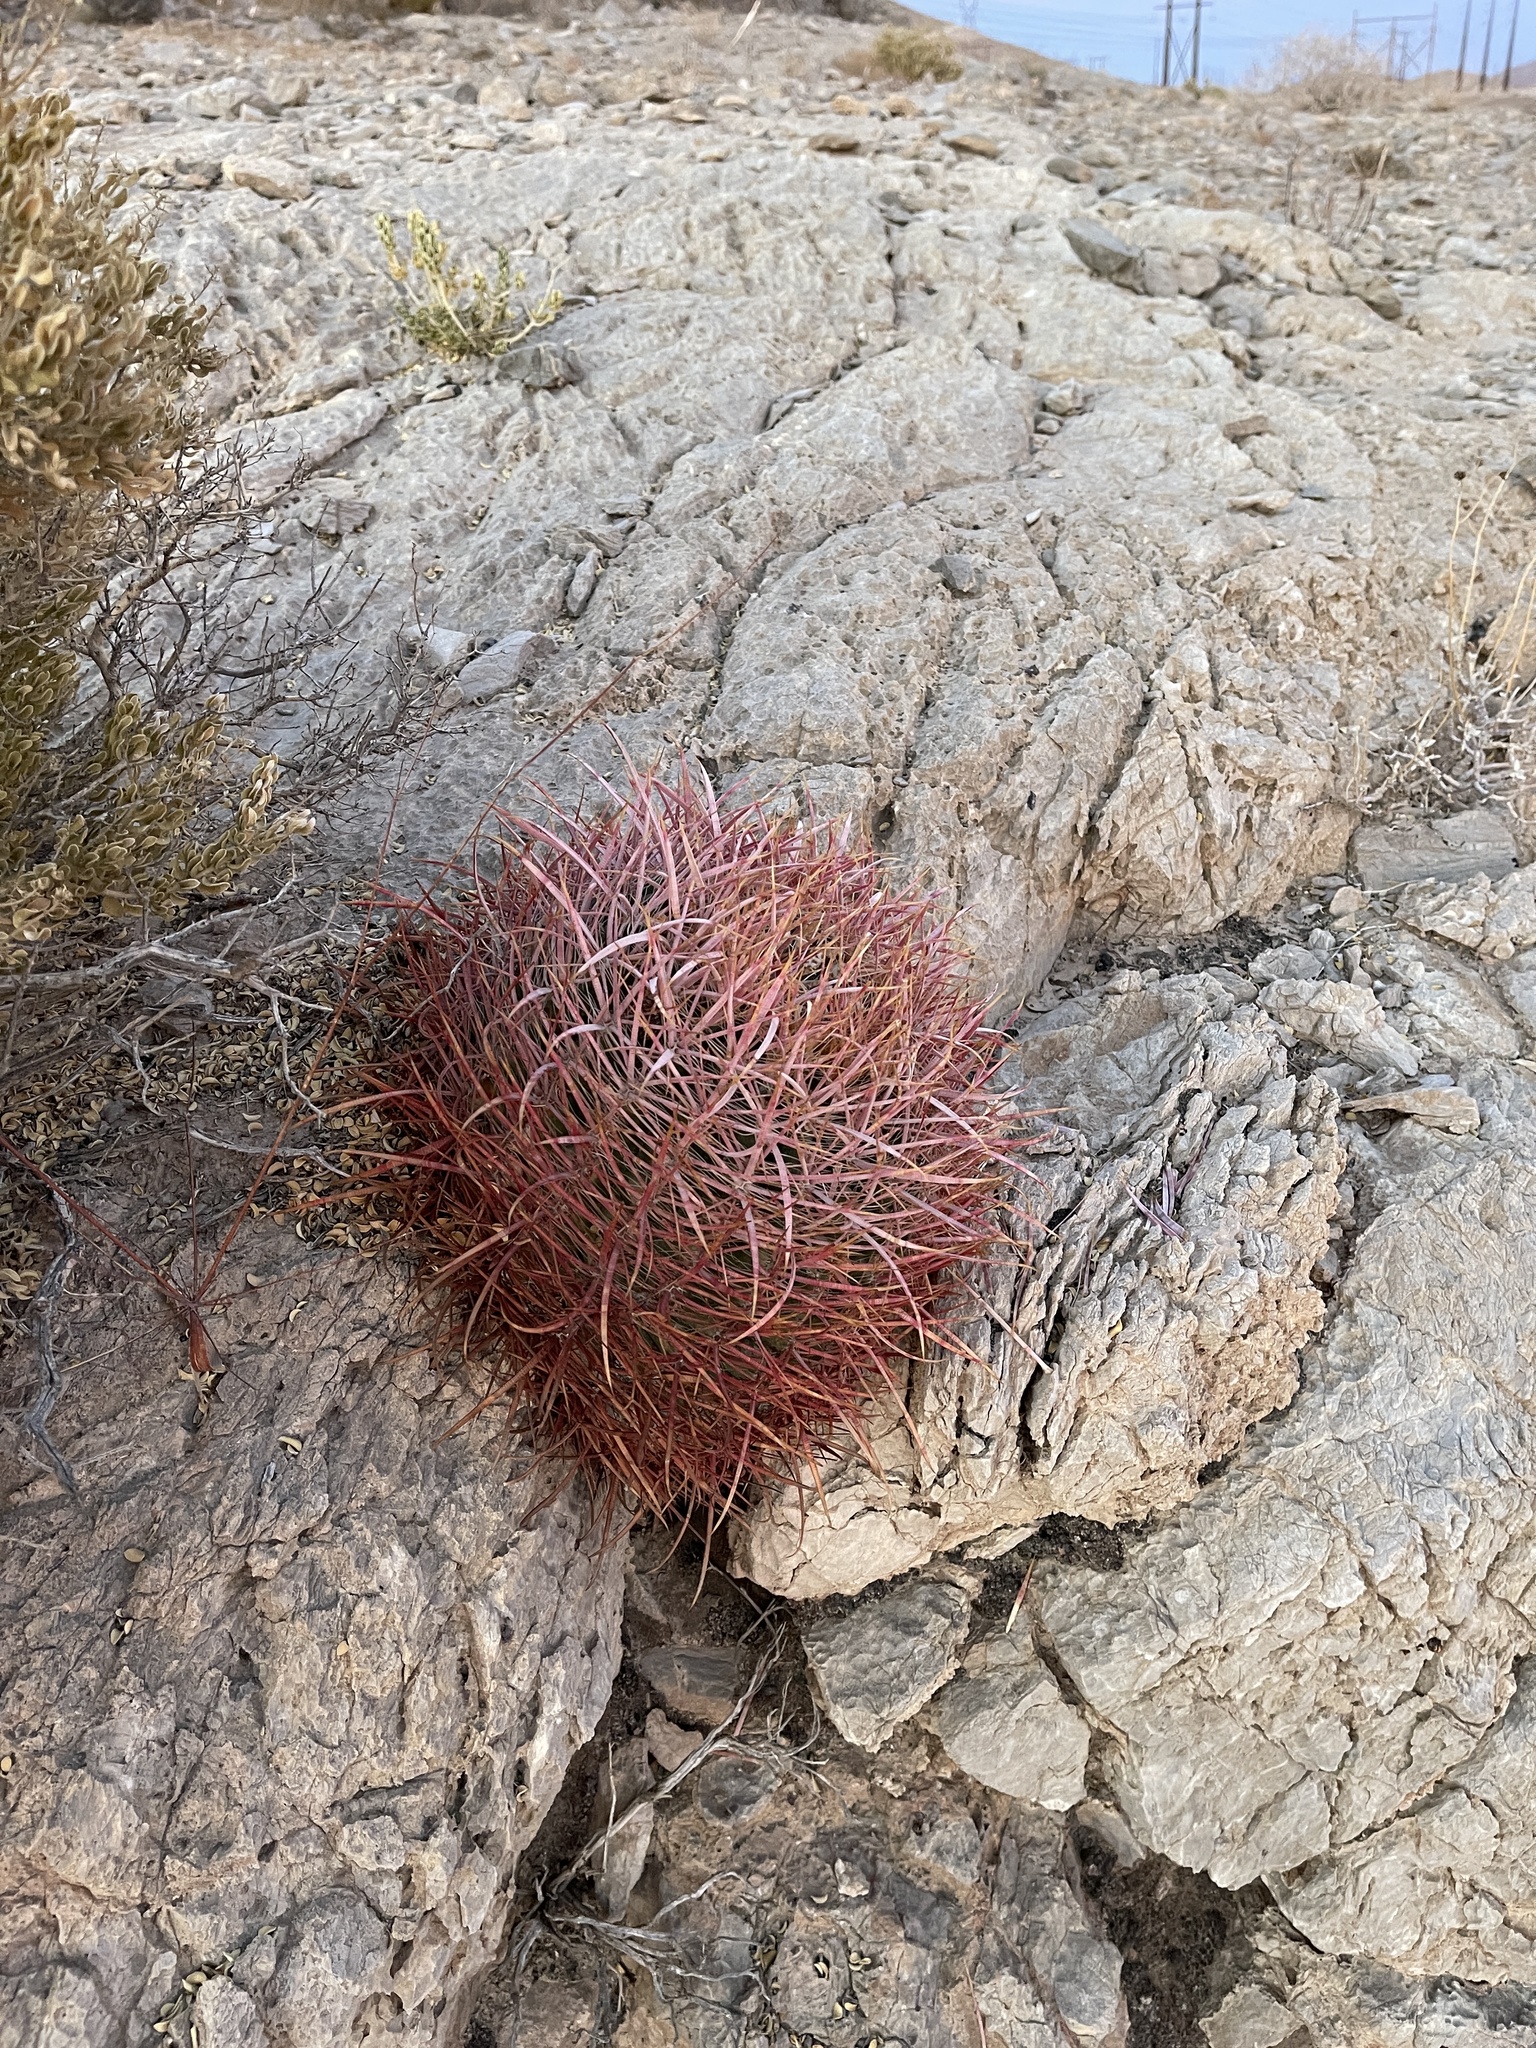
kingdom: Plantae
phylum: Tracheophyta
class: Magnoliopsida
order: Caryophyllales
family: Cactaceae
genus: Ferocactus
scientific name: Ferocactus cylindraceus
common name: California barrel cactus
